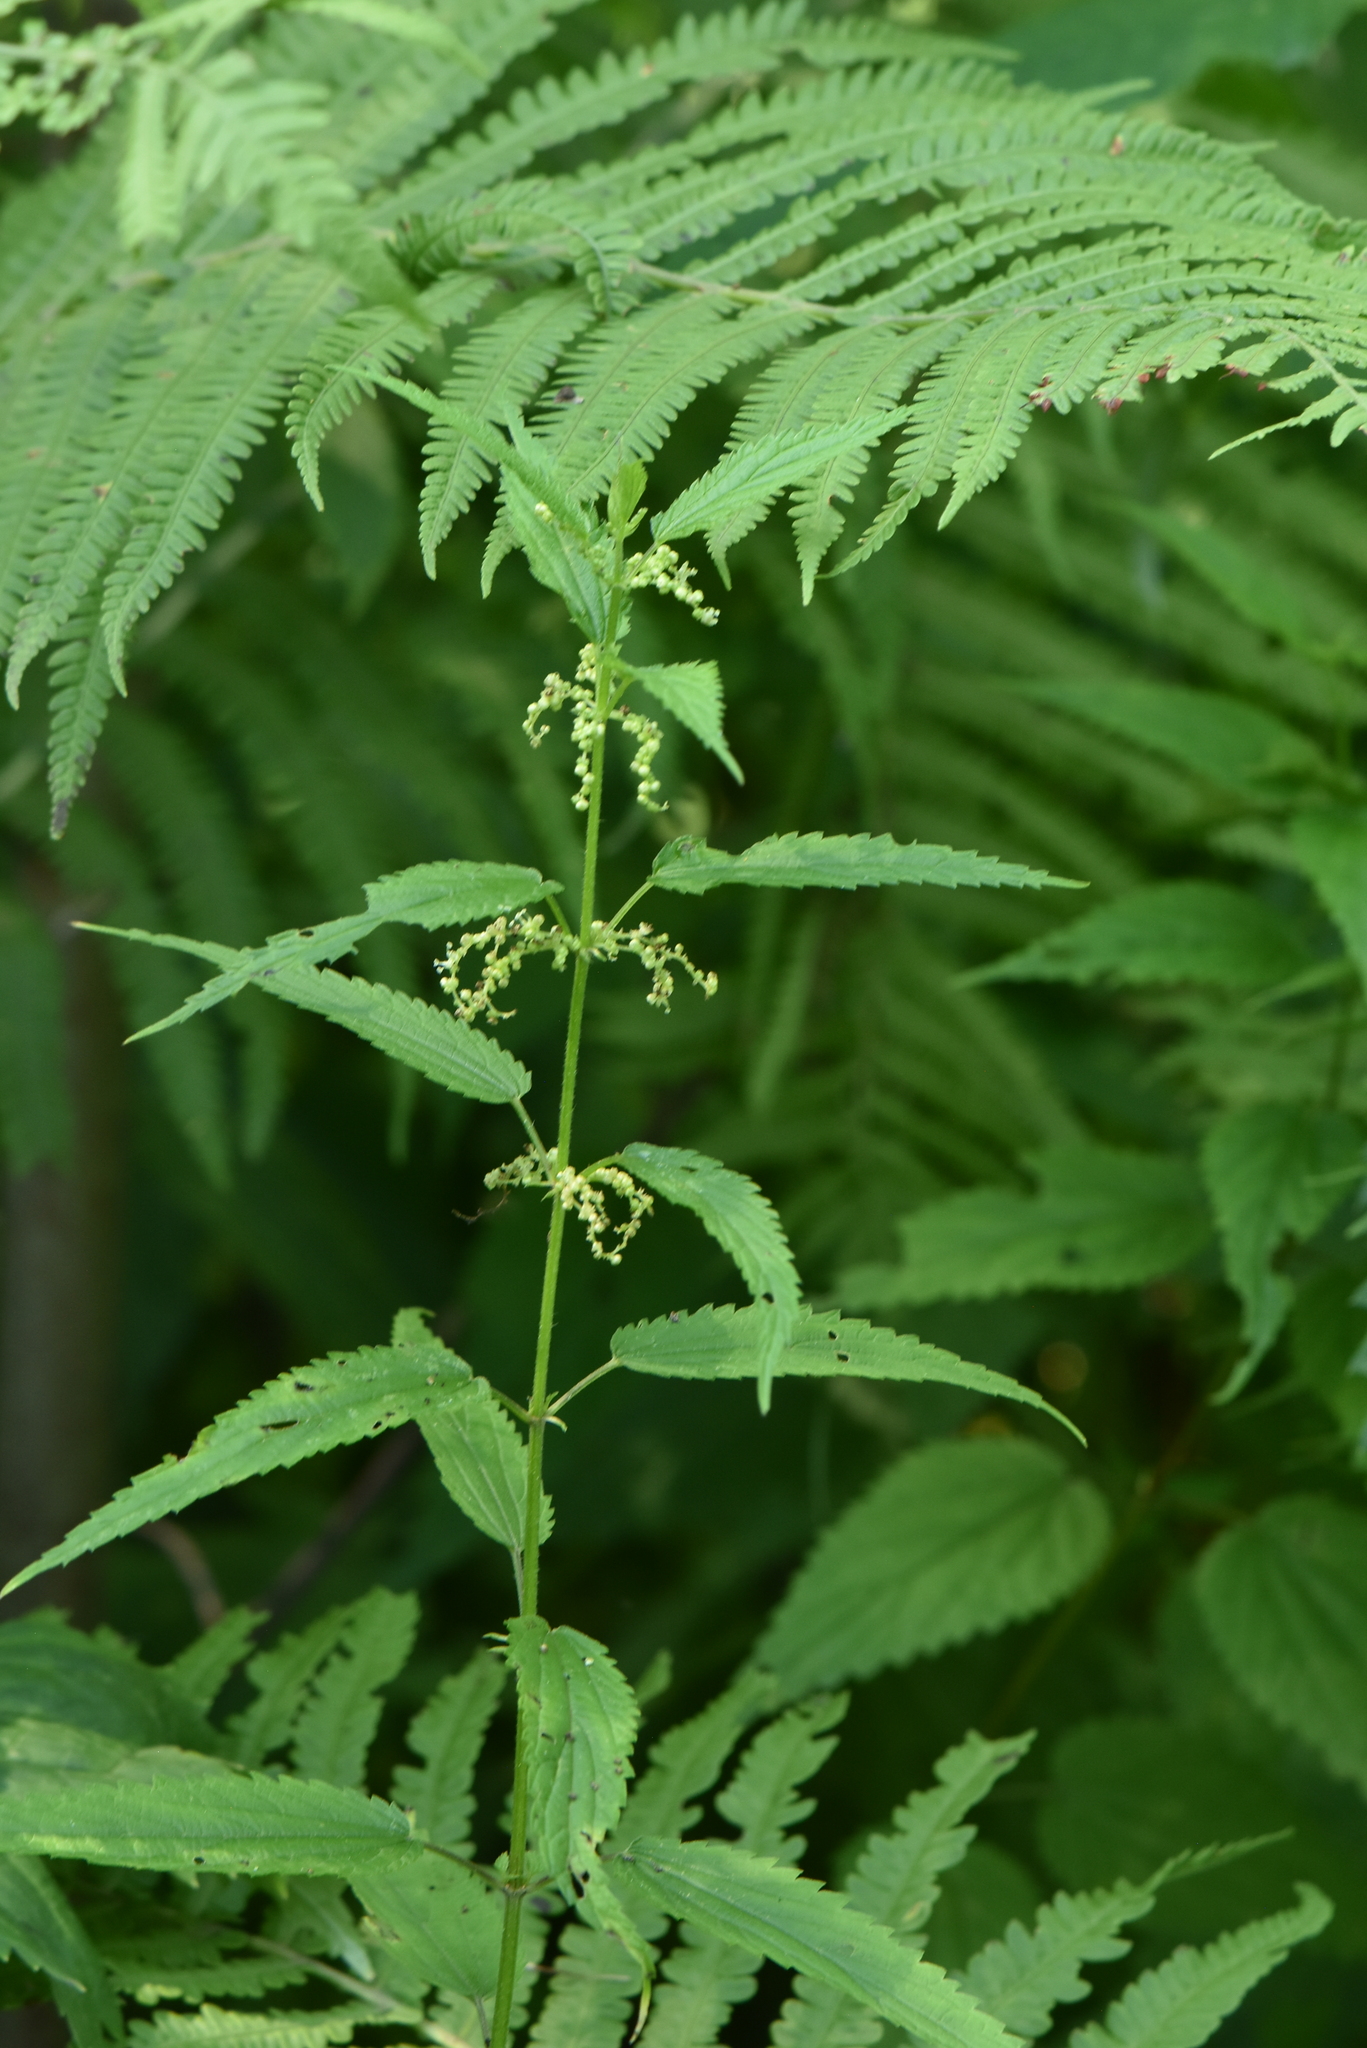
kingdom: Plantae
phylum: Tracheophyta
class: Magnoliopsida
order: Rosales
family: Urticaceae
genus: Urtica
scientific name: Urtica dioica
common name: Common nettle
